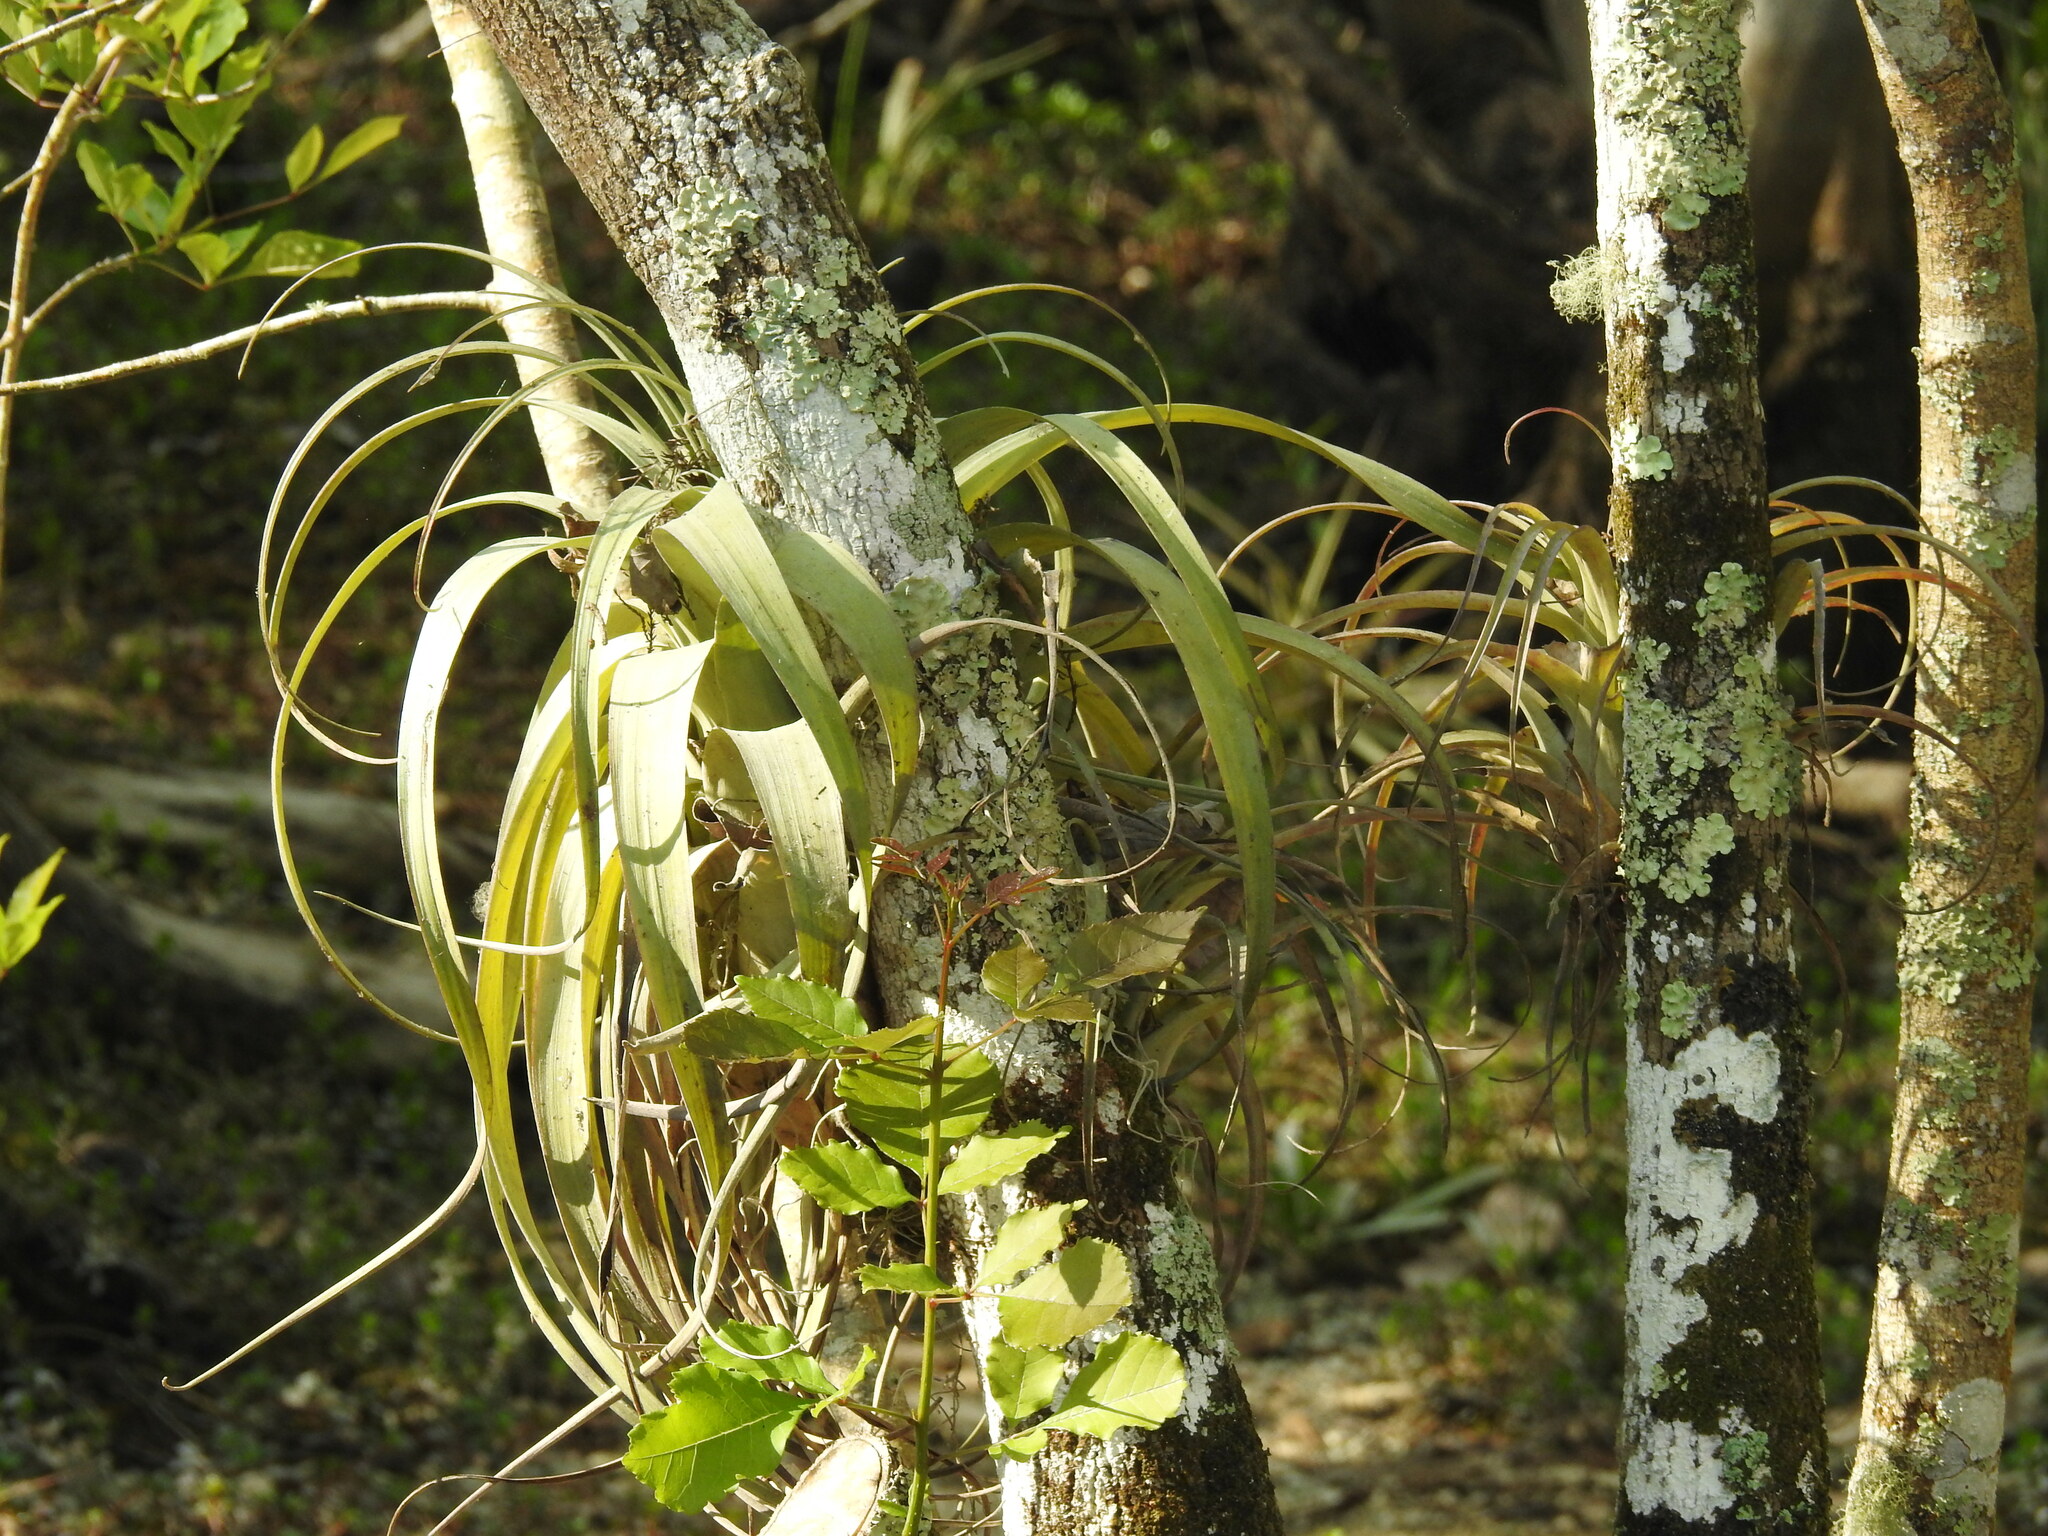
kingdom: Plantae
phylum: Tracheophyta
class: Liliopsida
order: Poales
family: Bromeliaceae
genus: Tillandsia
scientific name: Tillandsia utriculata
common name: Wild pine
